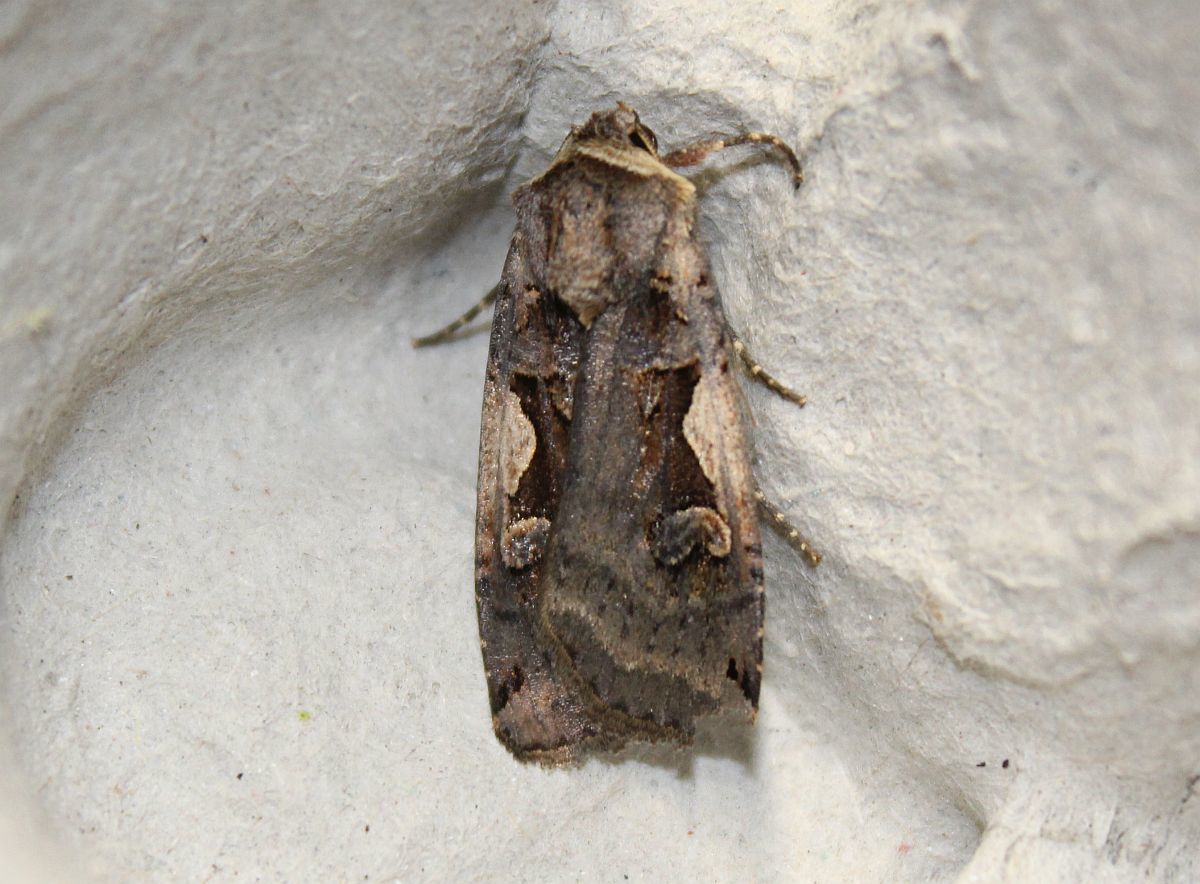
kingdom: Animalia
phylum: Arthropoda
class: Insecta
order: Lepidoptera
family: Noctuidae
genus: Xestia
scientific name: Xestia c-nigrum
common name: Setaceous hebrew character
